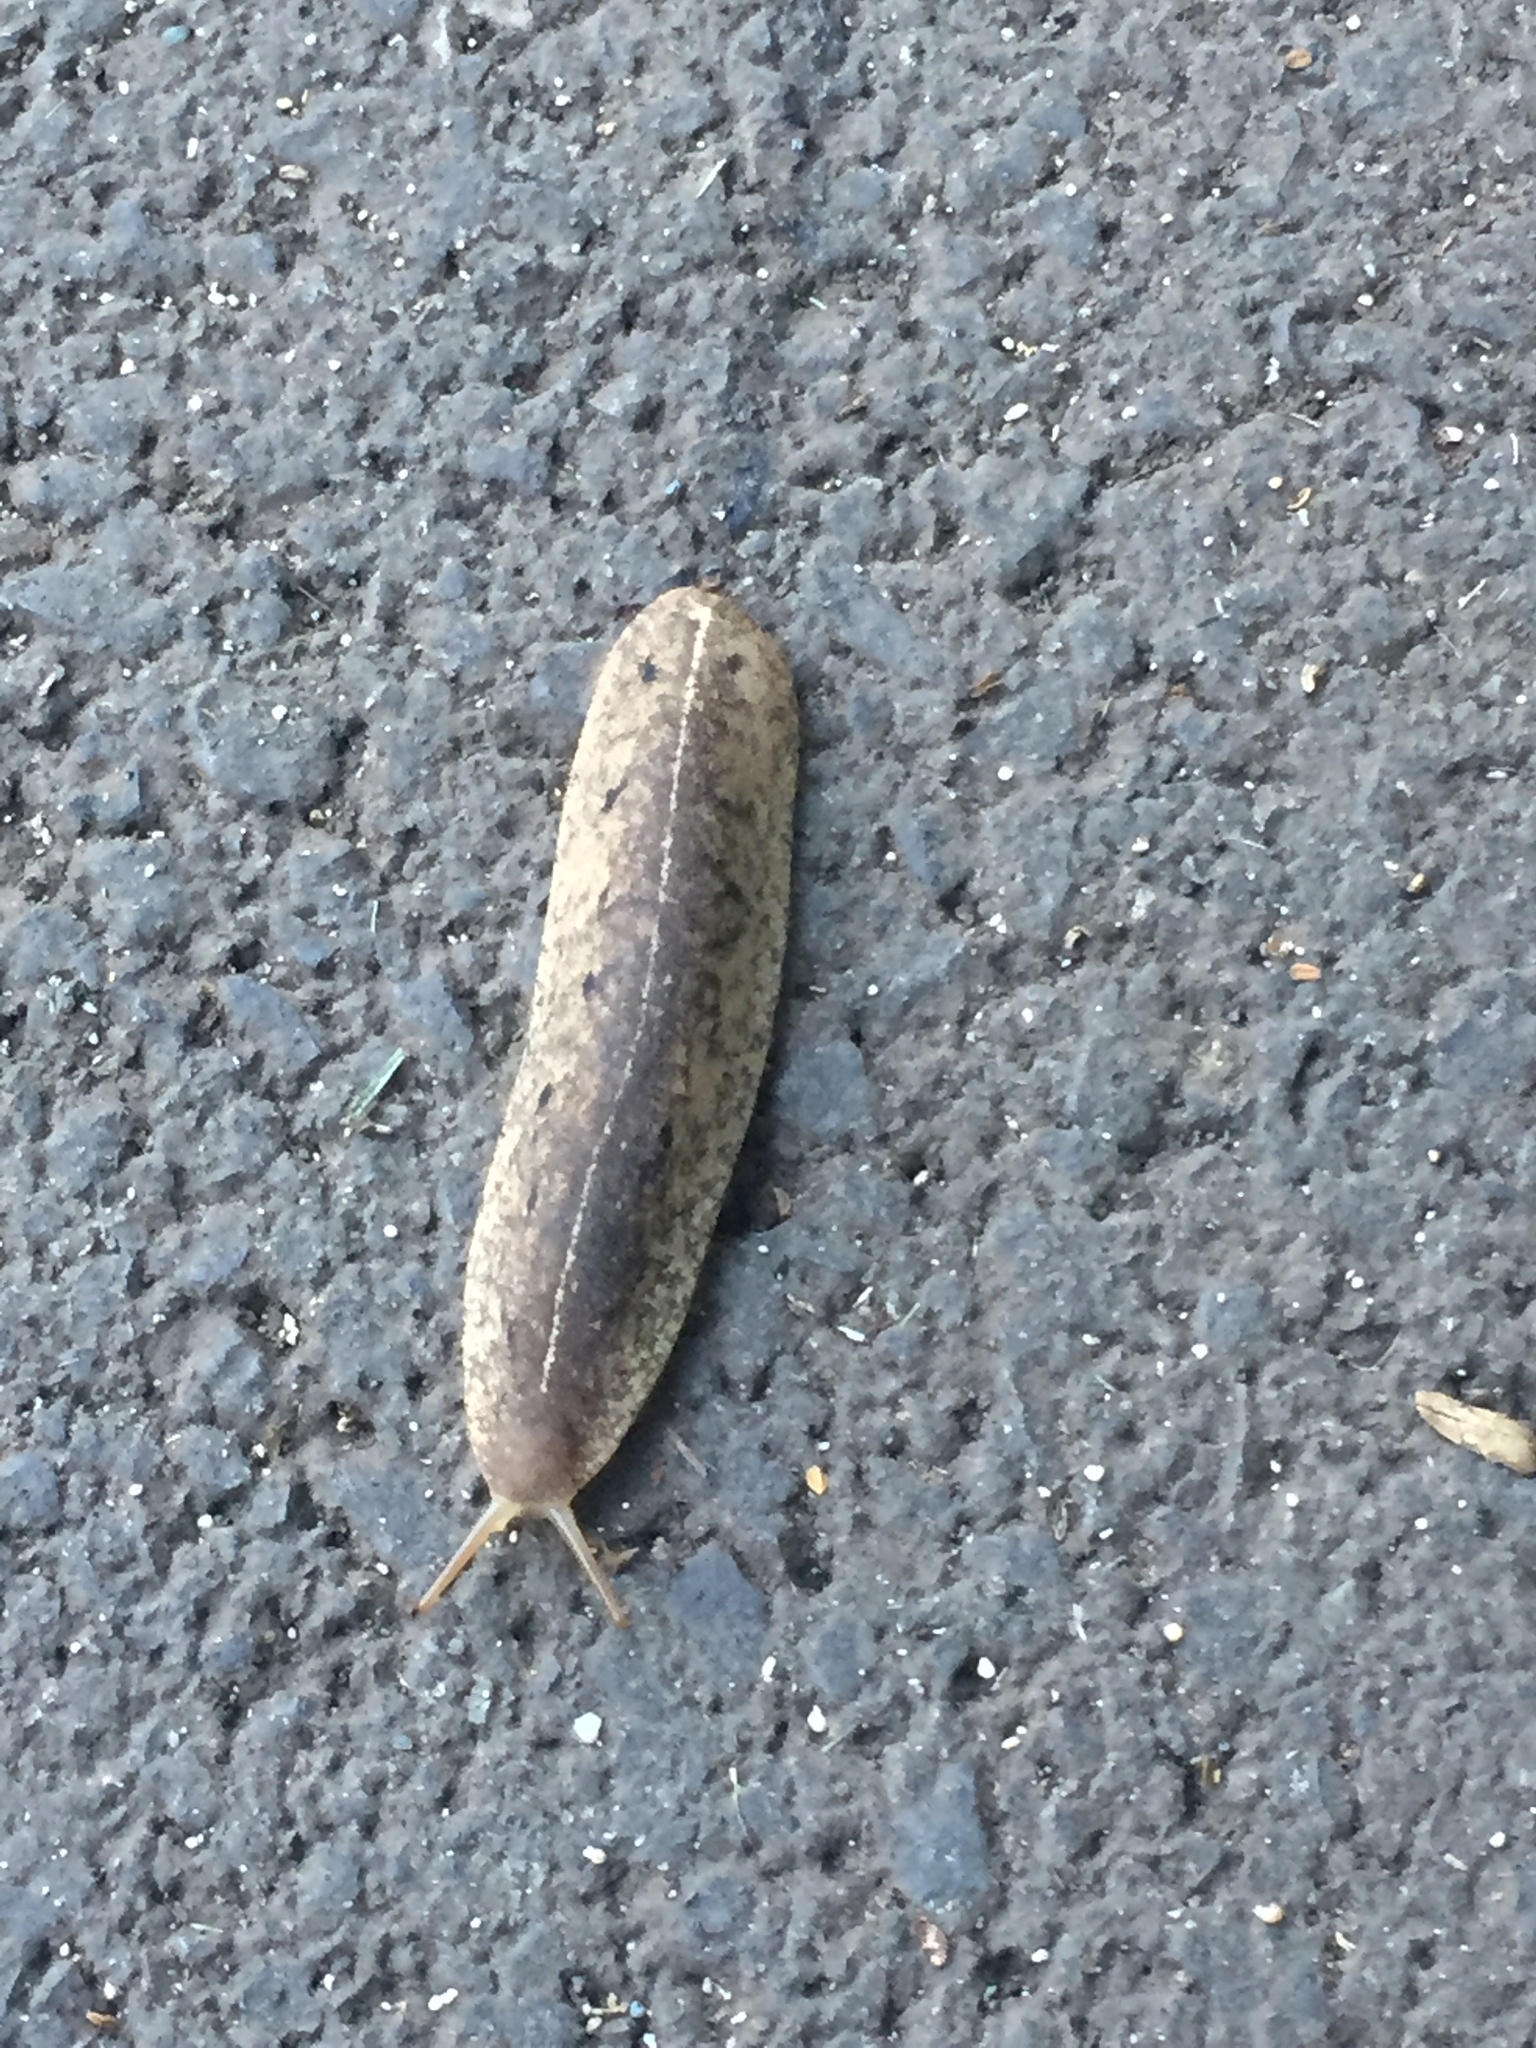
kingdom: Animalia
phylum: Mollusca
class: Gastropoda
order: Systellommatophora
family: Veronicellidae
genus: Veronicella
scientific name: Veronicella cubensis
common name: Two striped slug
